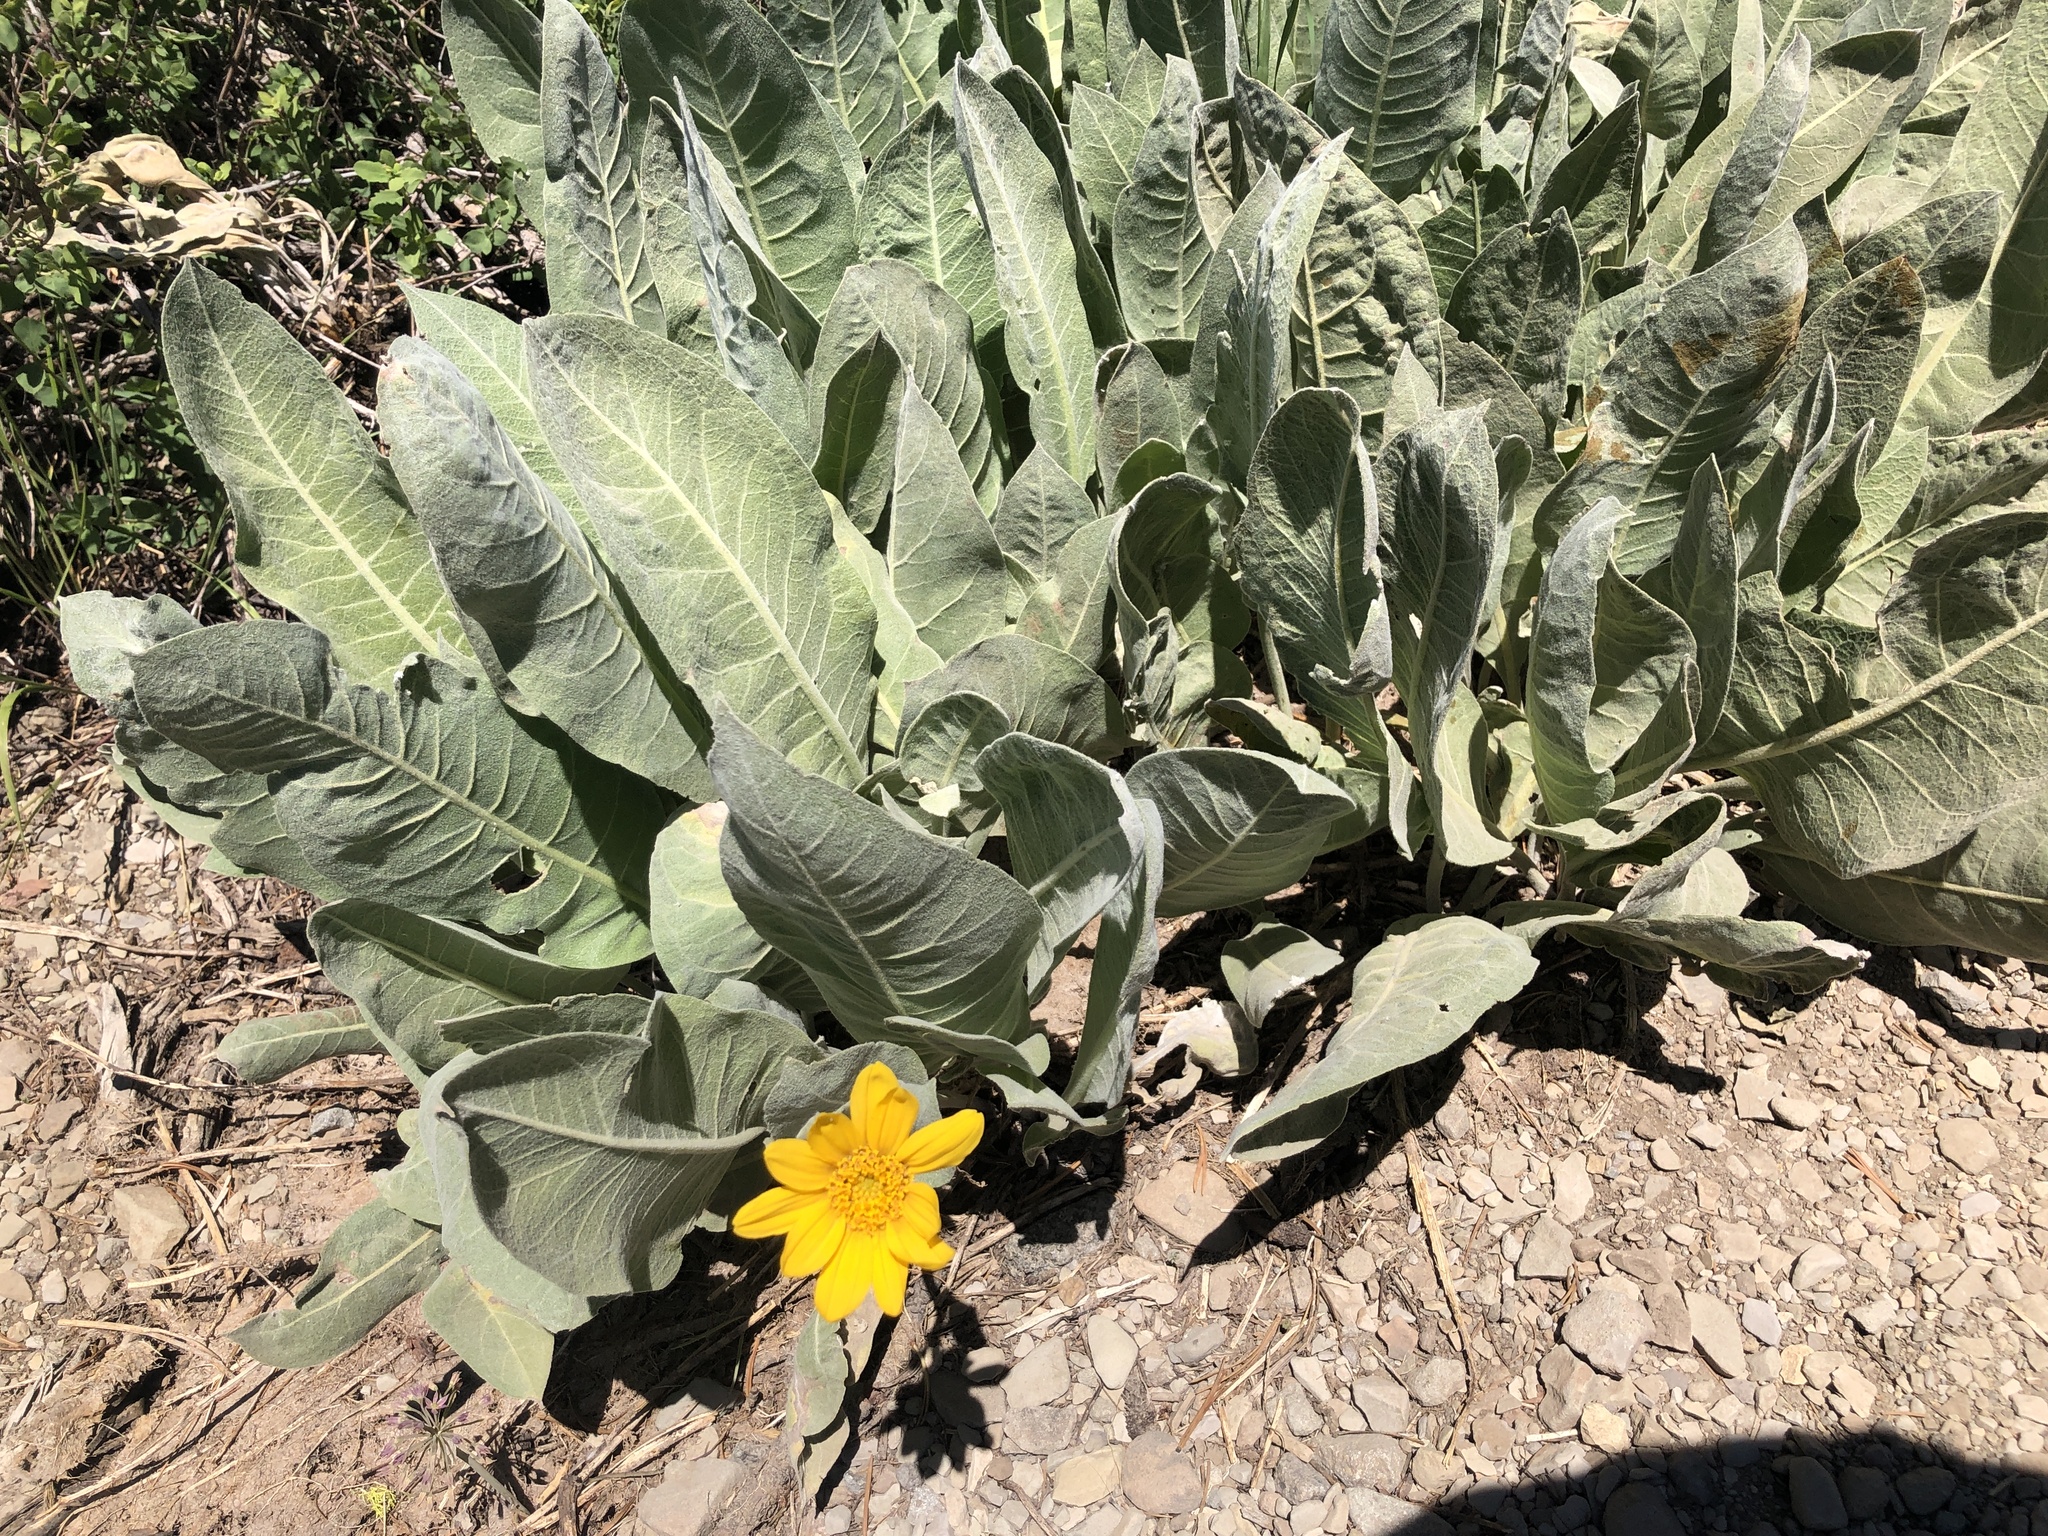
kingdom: Plantae
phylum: Tracheophyta
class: Magnoliopsida
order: Asterales
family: Asteraceae
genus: Wyethia
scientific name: Wyethia mollis
